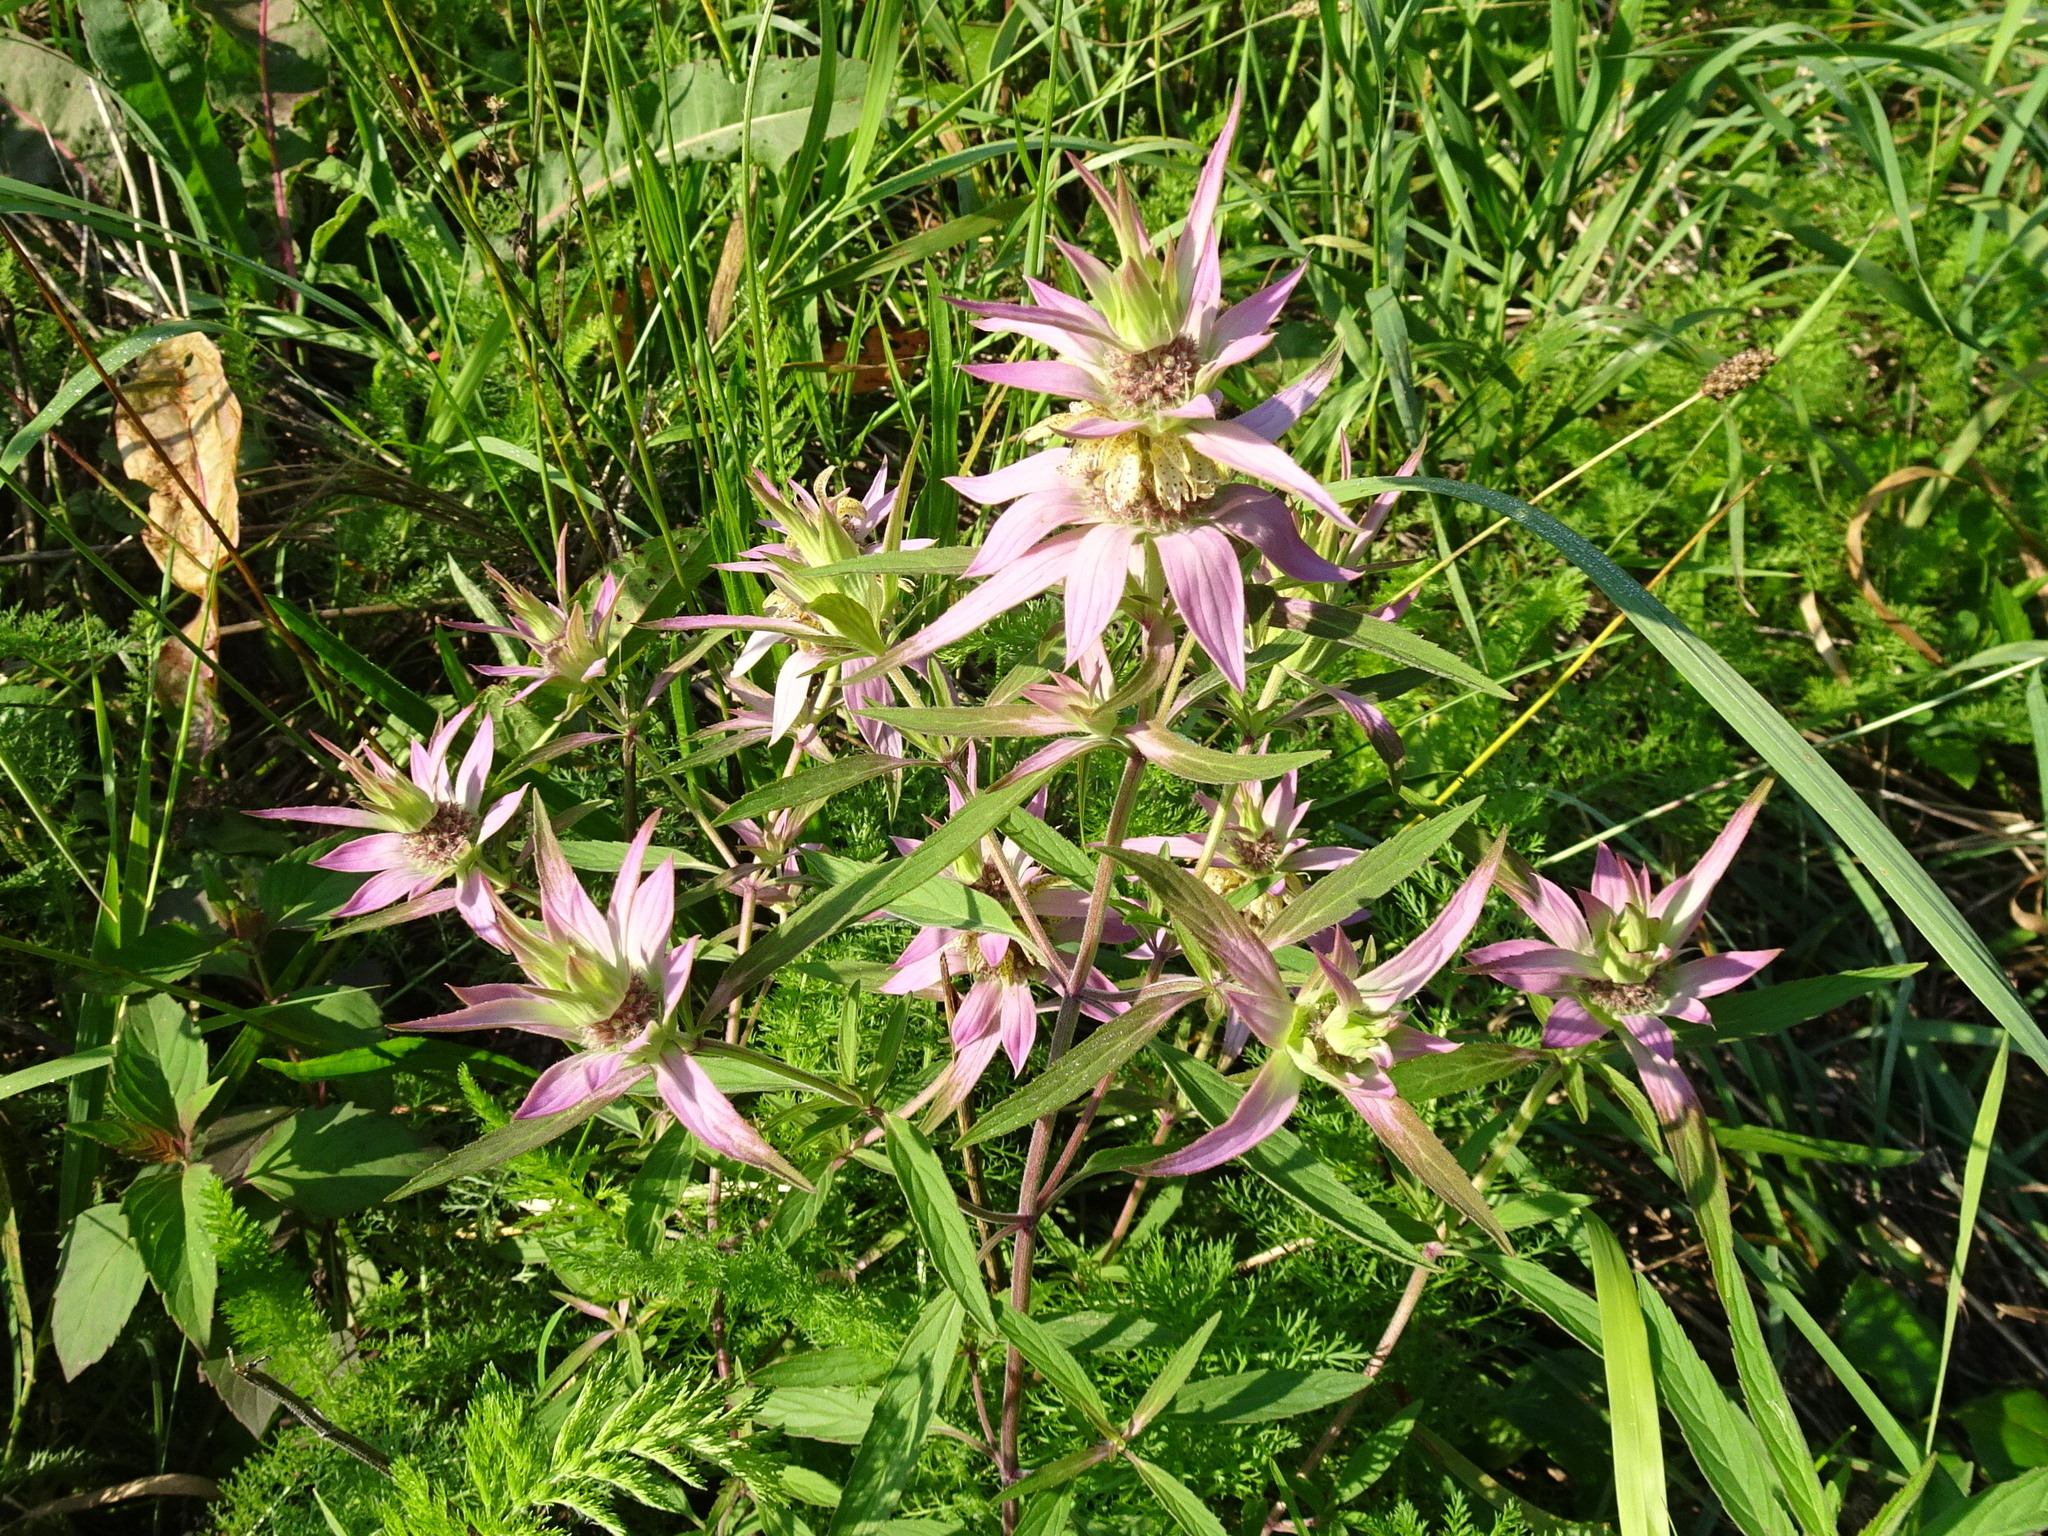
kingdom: Plantae
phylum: Tracheophyta
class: Magnoliopsida
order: Lamiales
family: Lamiaceae
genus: Monarda
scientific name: Monarda punctata
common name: Dotted monarda
